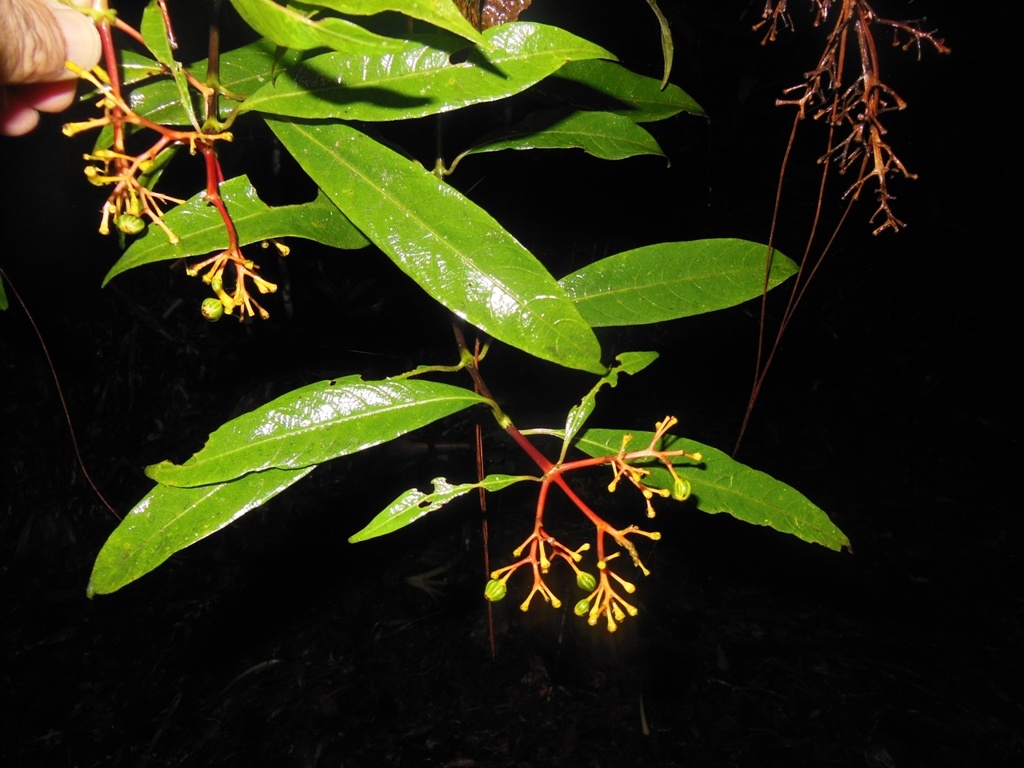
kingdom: Plantae
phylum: Tracheophyta
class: Magnoliopsida
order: Gentianales
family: Rubiaceae
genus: Palicourea
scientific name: Palicourea padifolia
